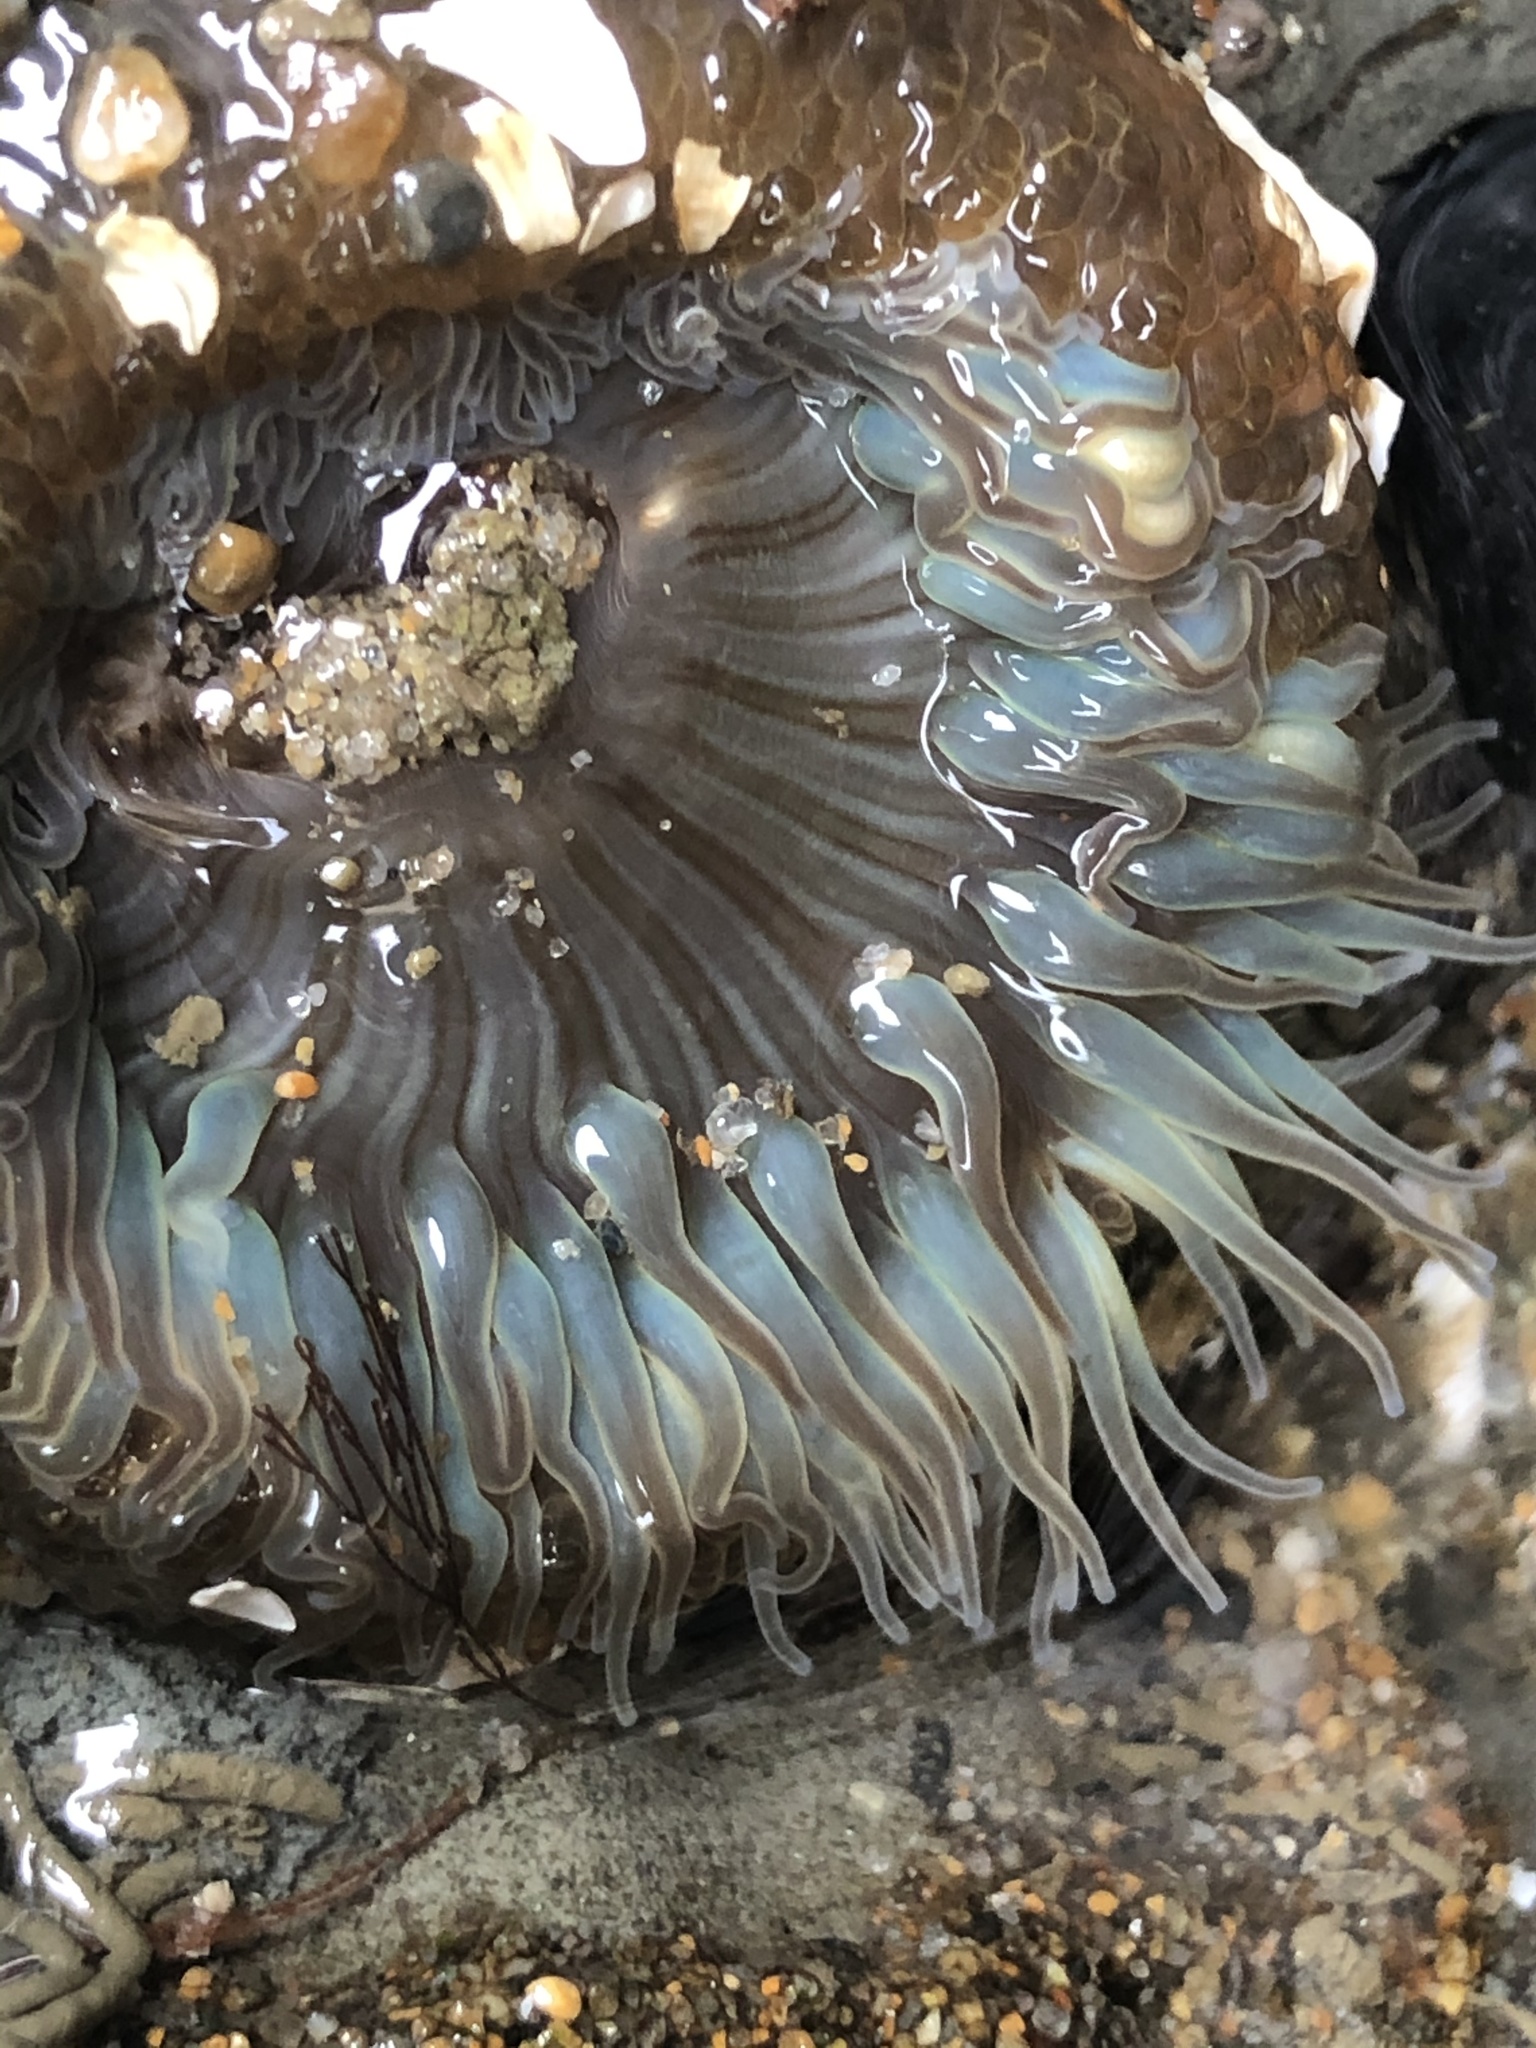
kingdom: Animalia
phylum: Cnidaria
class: Anthozoa
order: Actiniaria
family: Actiniidae
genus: Anthopleura
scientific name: Anthopleura sola
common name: Sun anemone
